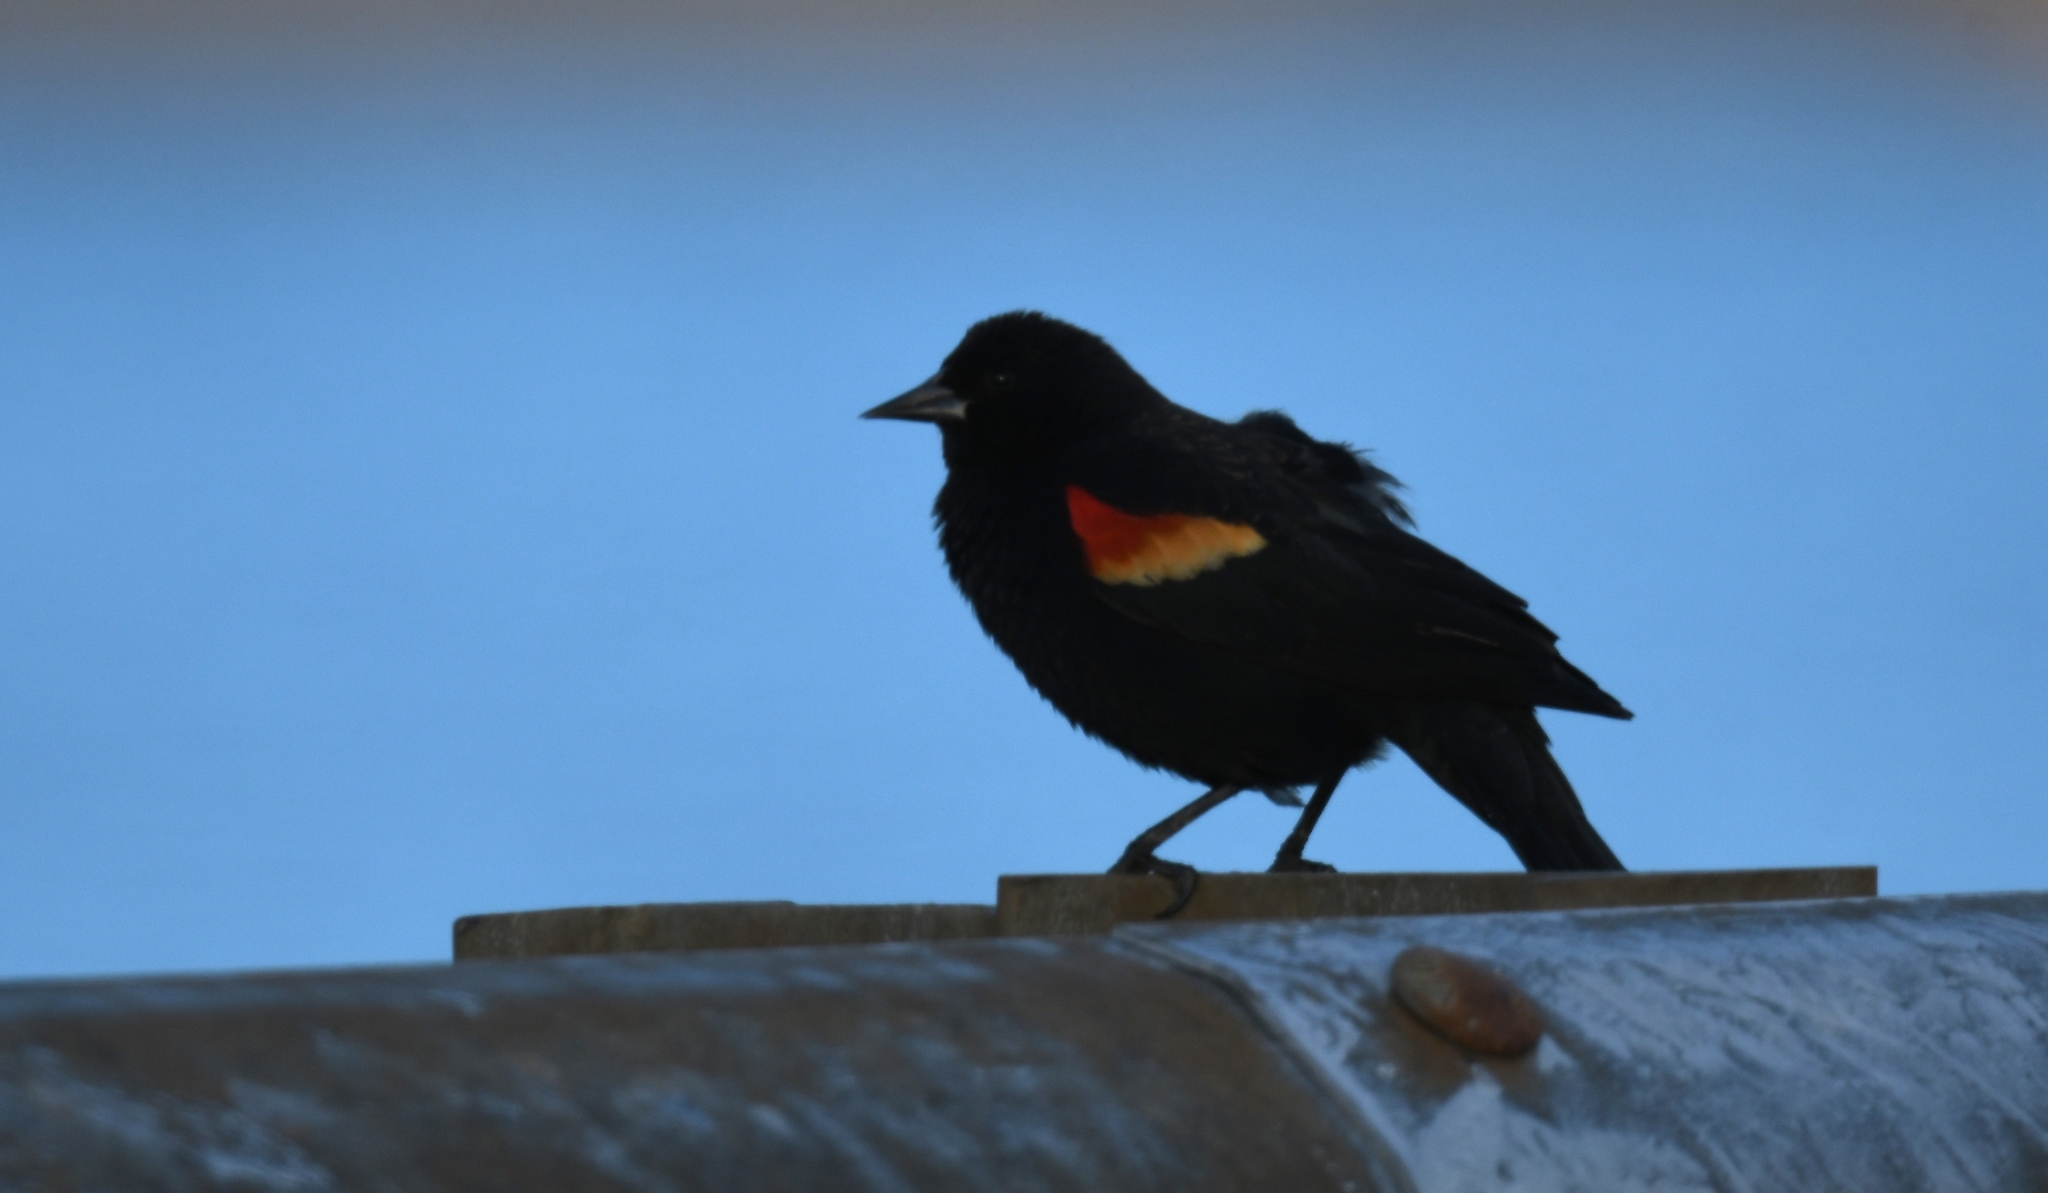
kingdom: Animalia
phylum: Chordata
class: Aves
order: Passeriformes
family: Icteridae
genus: Agelaius
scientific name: Agelaius phoeniceus
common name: Red-winged blackbird
